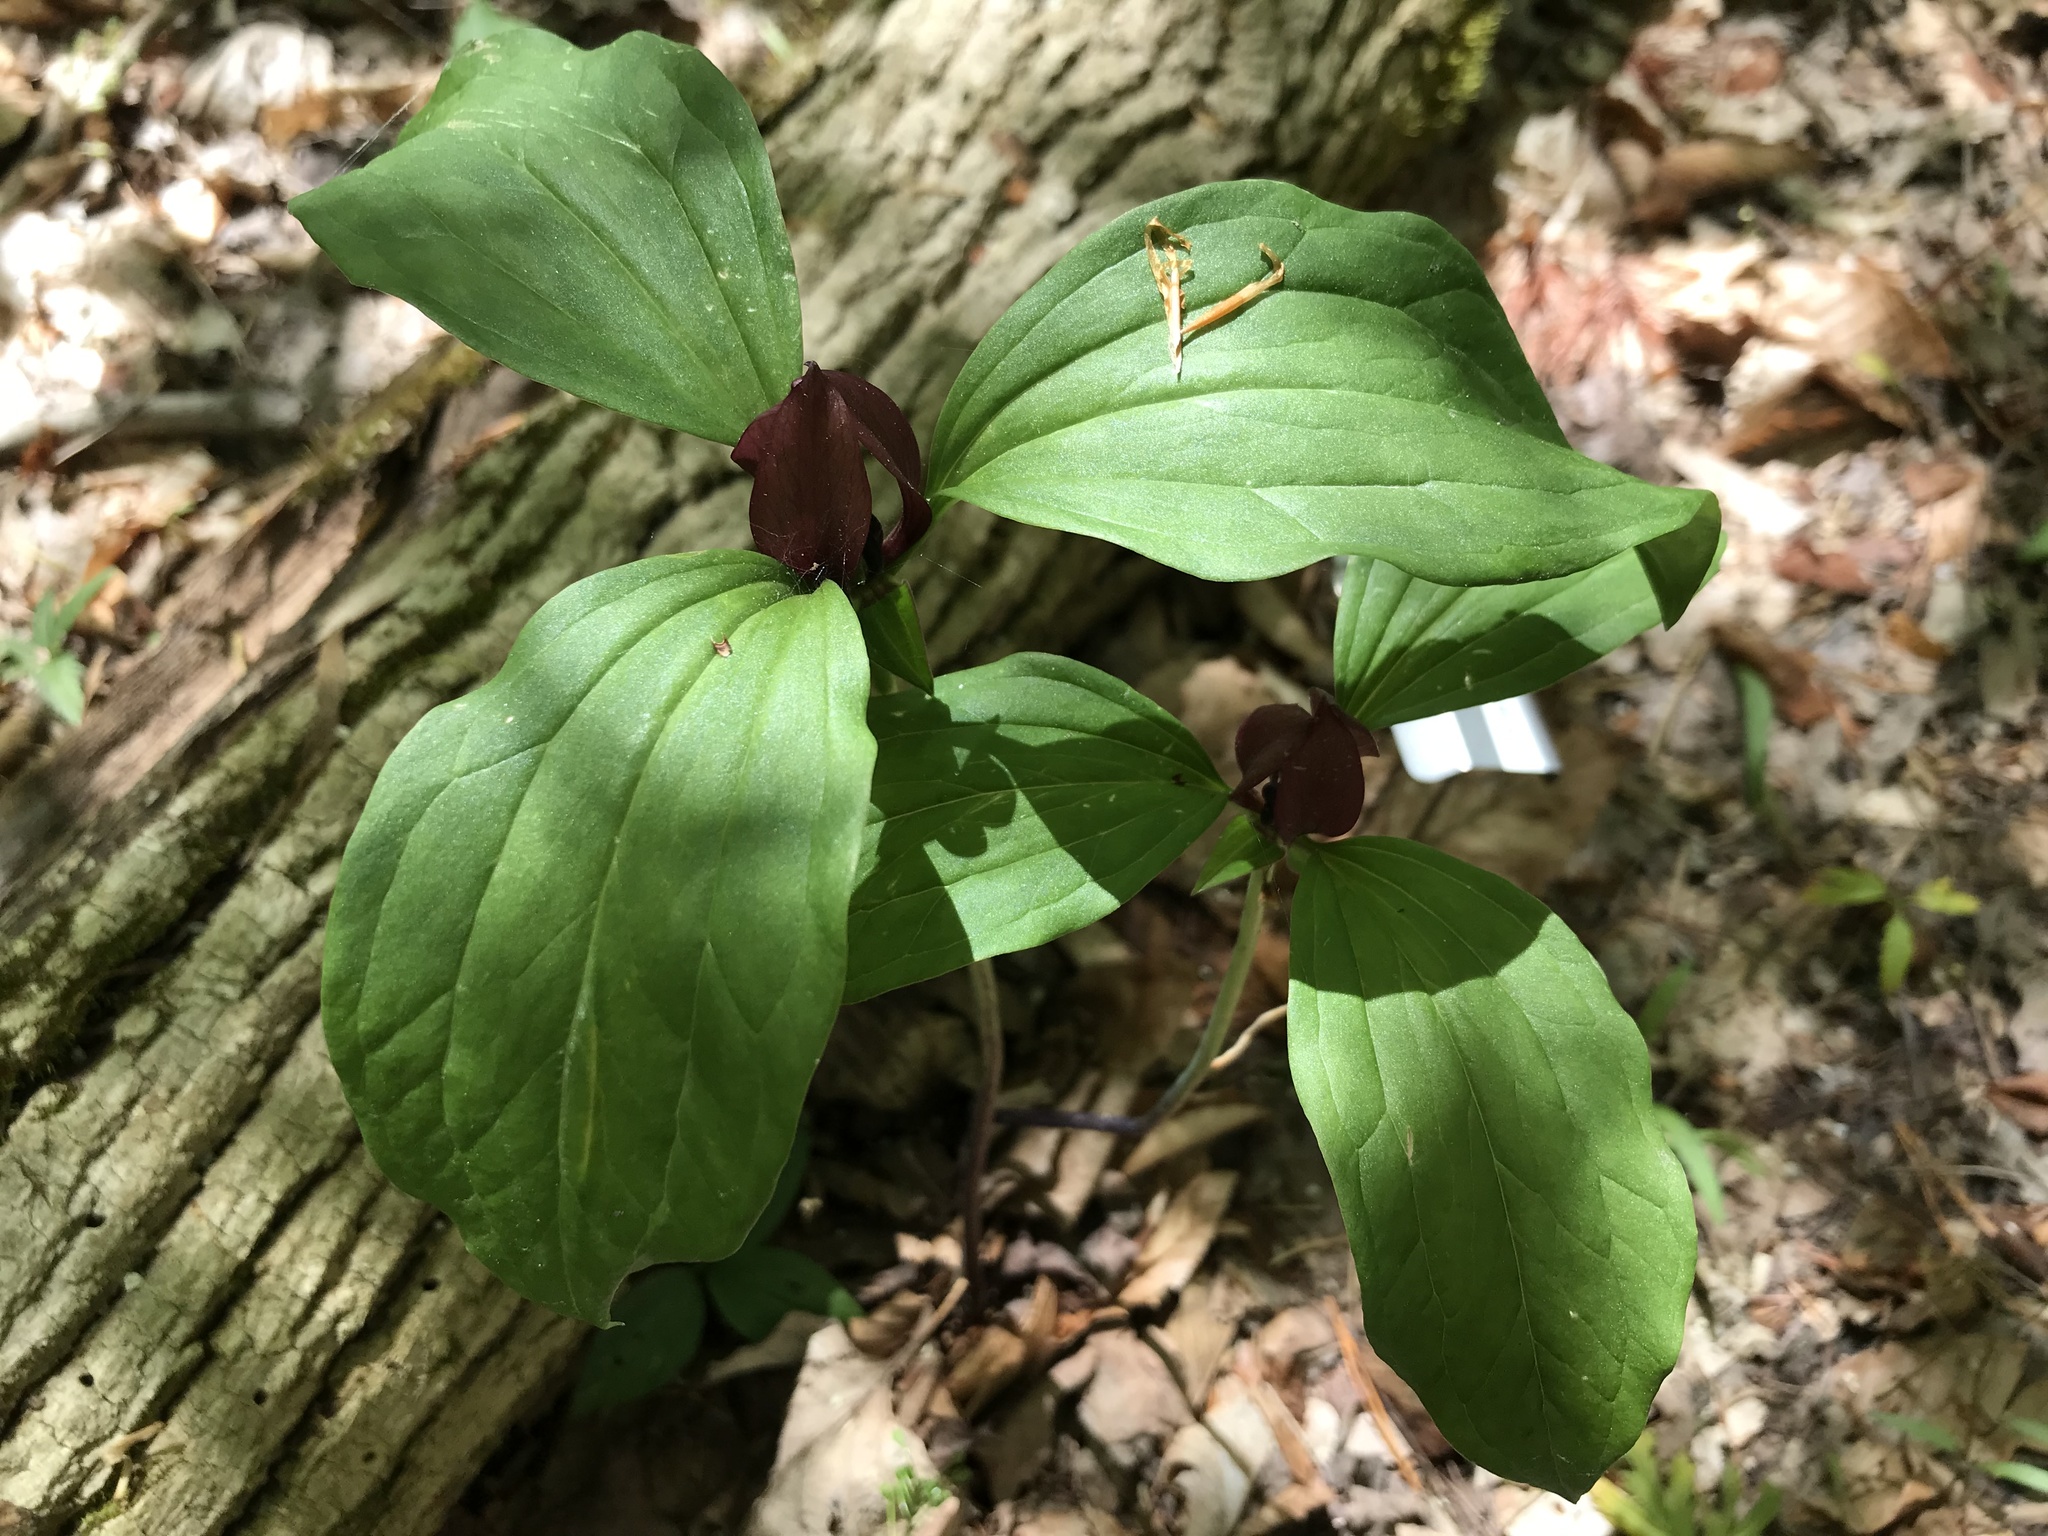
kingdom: Plantae
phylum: Tracheophyta
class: Liliopsida
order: Liliales
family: Melanthiaceae
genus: Trillium
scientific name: Trillium recurvatum
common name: Bloody butcher
